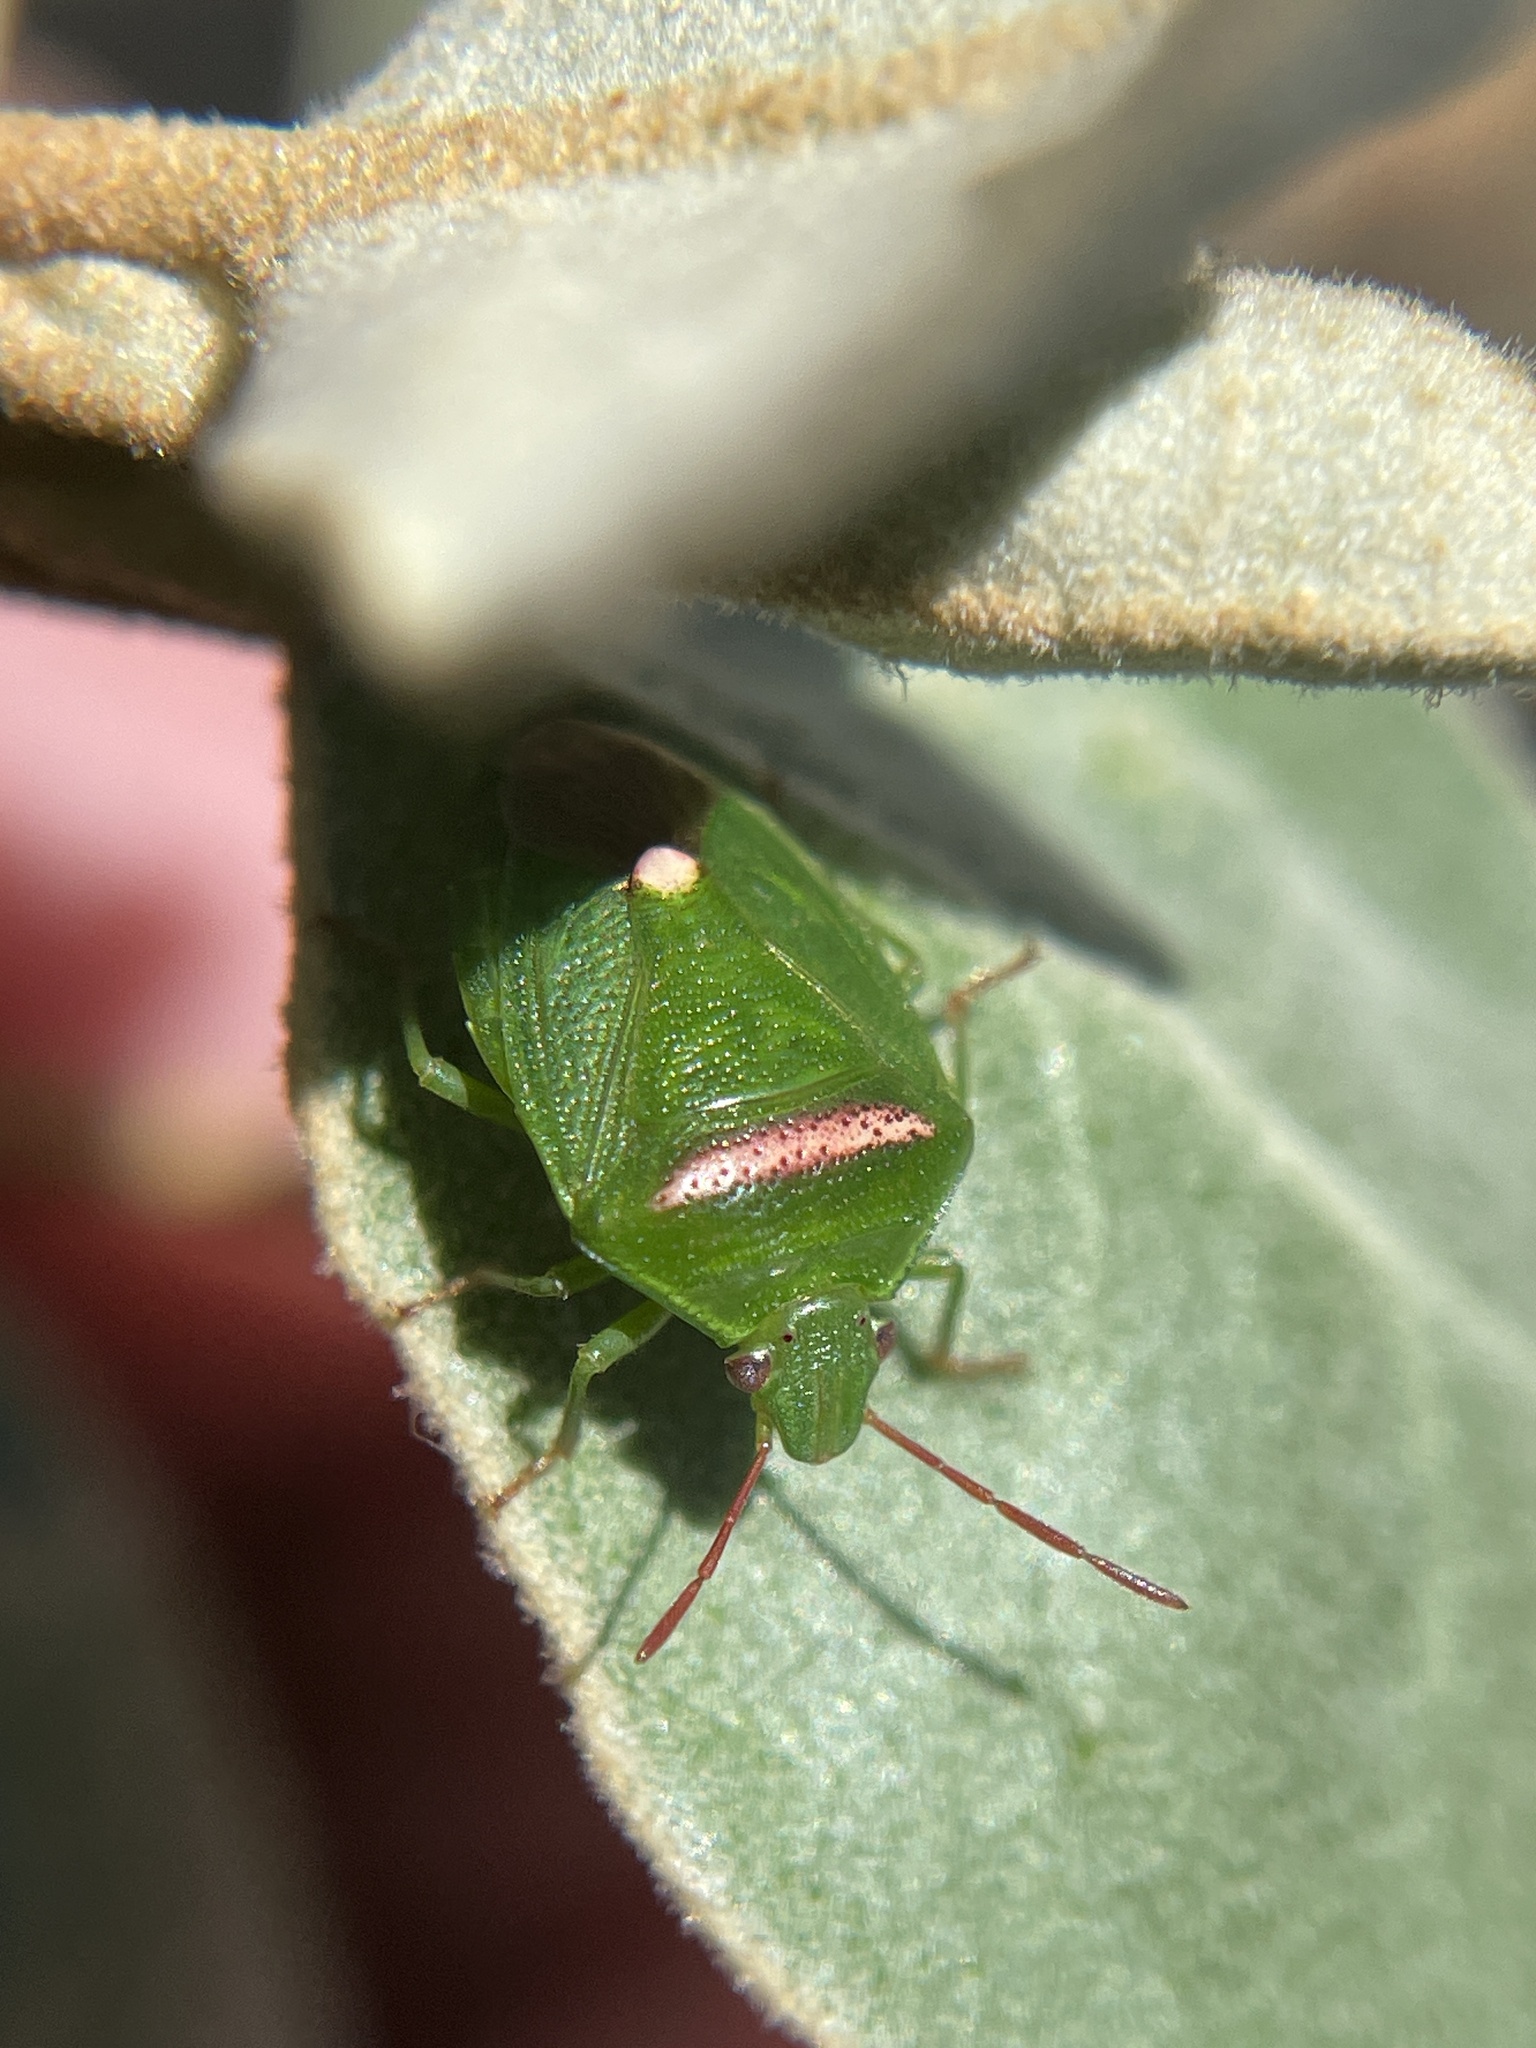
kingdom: Animalia
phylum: Arthropoda
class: Insecta
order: Hemiptera
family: Pentatomidae
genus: Ocirrhoe
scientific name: Ocirrhoe
